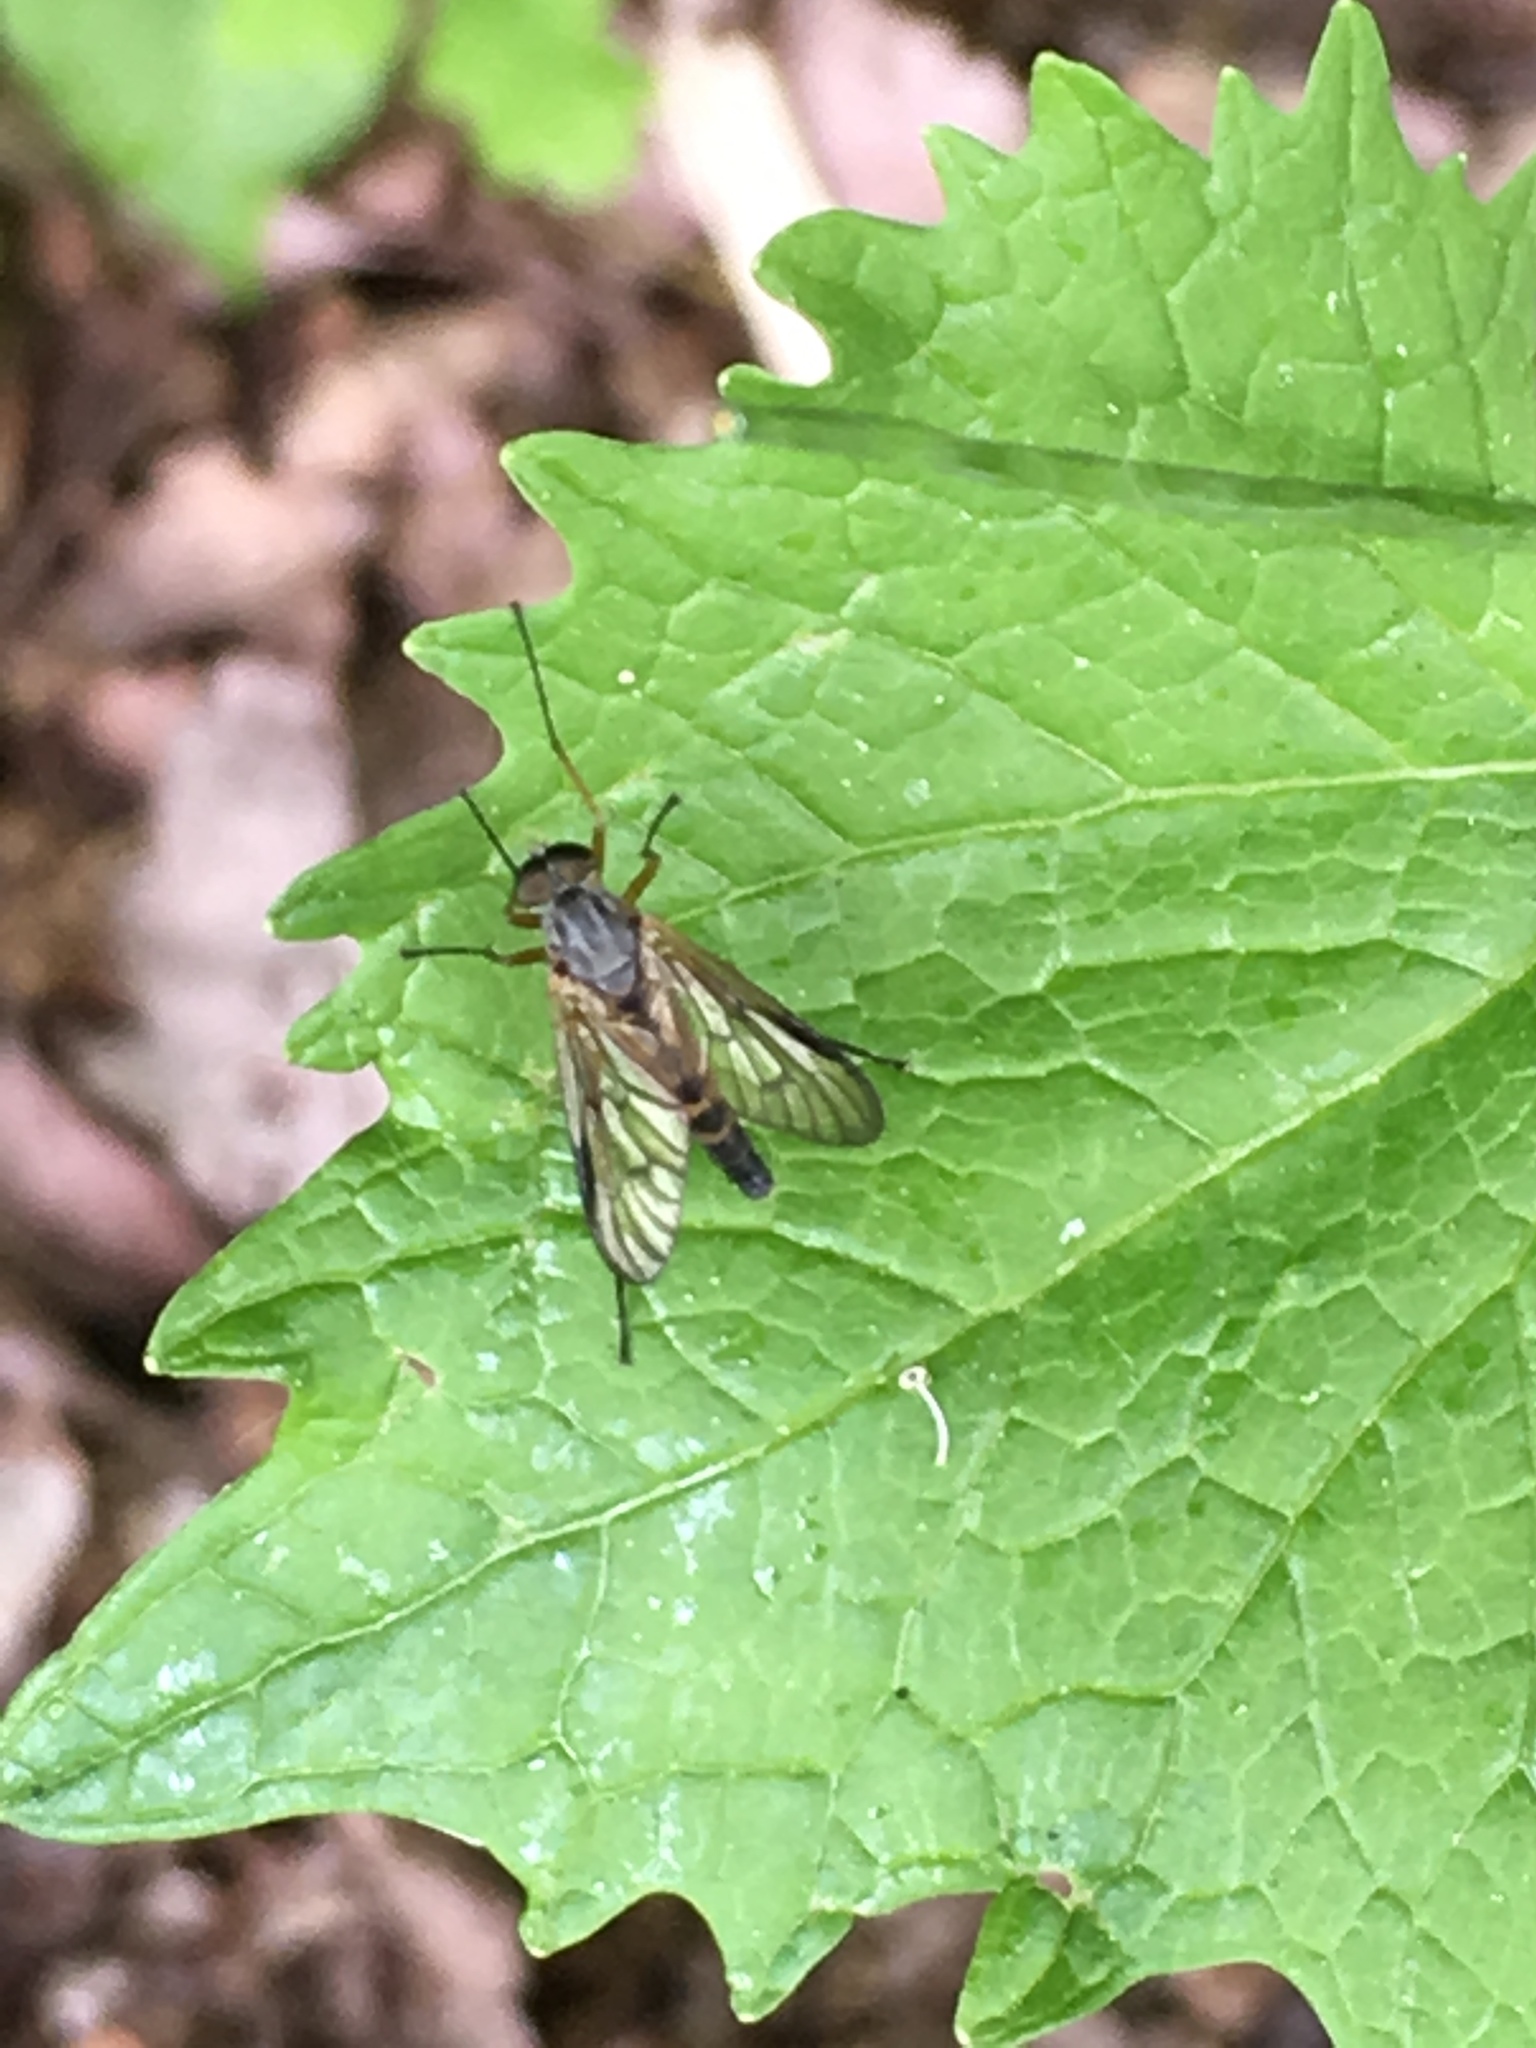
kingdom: Animalia
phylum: Arthropoda
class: Insecta
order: Diptera
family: Rhagionidae
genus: Rhagio
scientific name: Rhagio vitripennis
